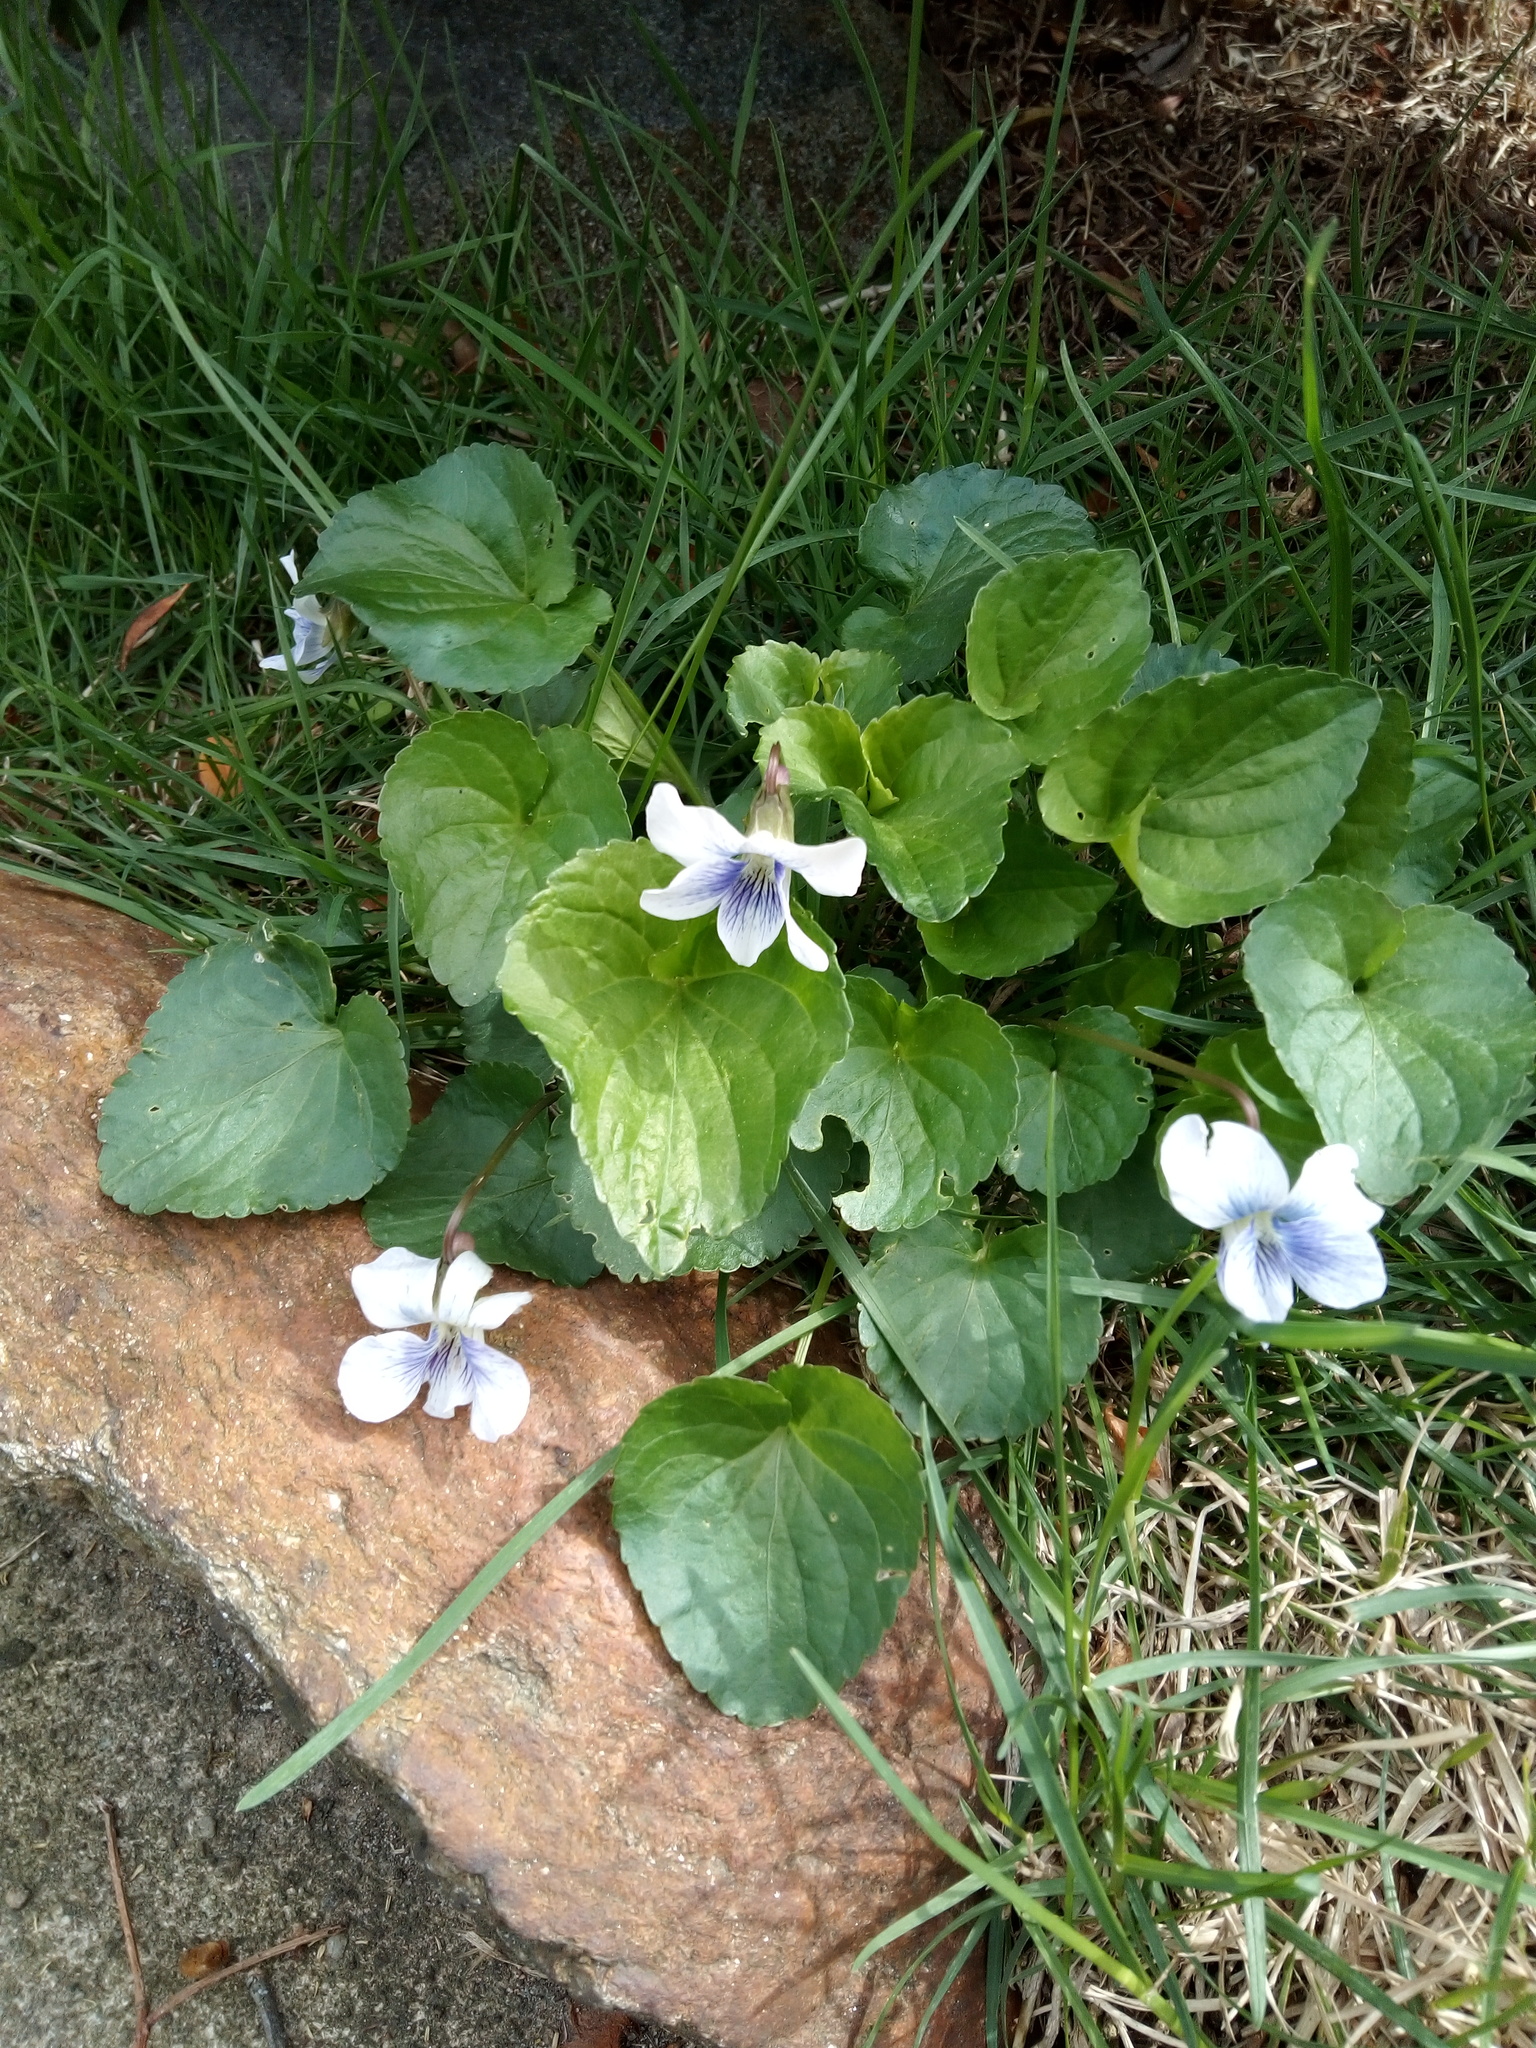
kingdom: Plantae
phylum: Tracheophyta
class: Magnoliopsida
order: Malpighiales
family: Violaceae
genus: Viola
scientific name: Viola sororia
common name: Dooryard violet
